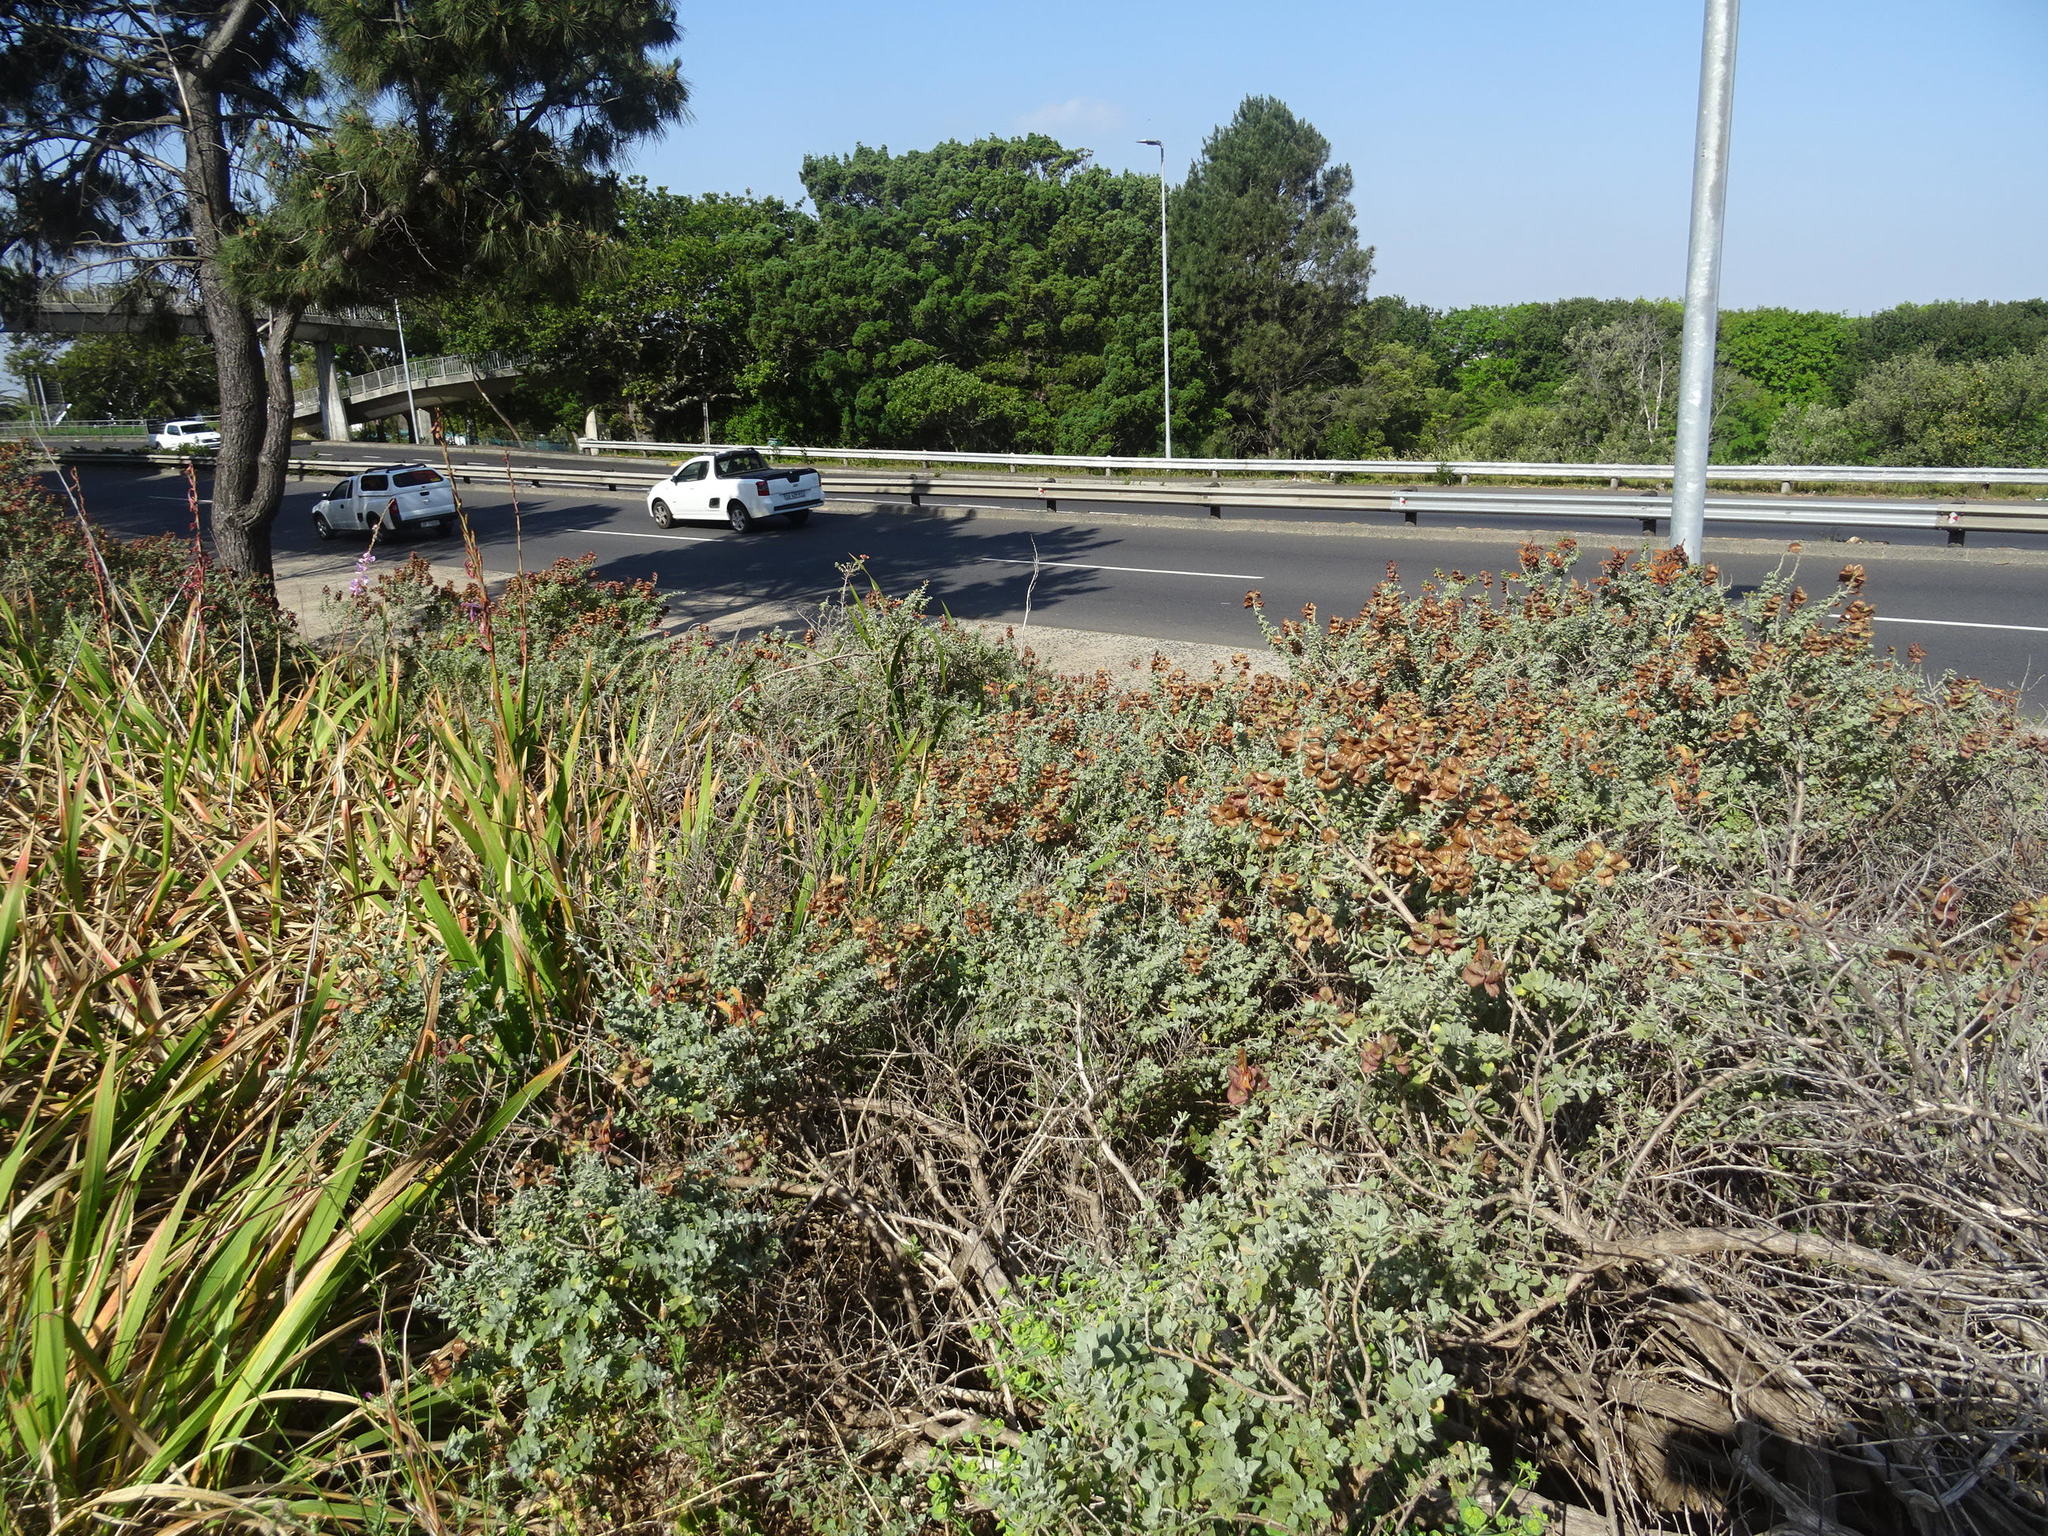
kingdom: Plantae
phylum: Tracheophyta
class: Magnoliopsida
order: Lamiales
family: Lamiaceae
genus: Salvia
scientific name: Salvia aurea
